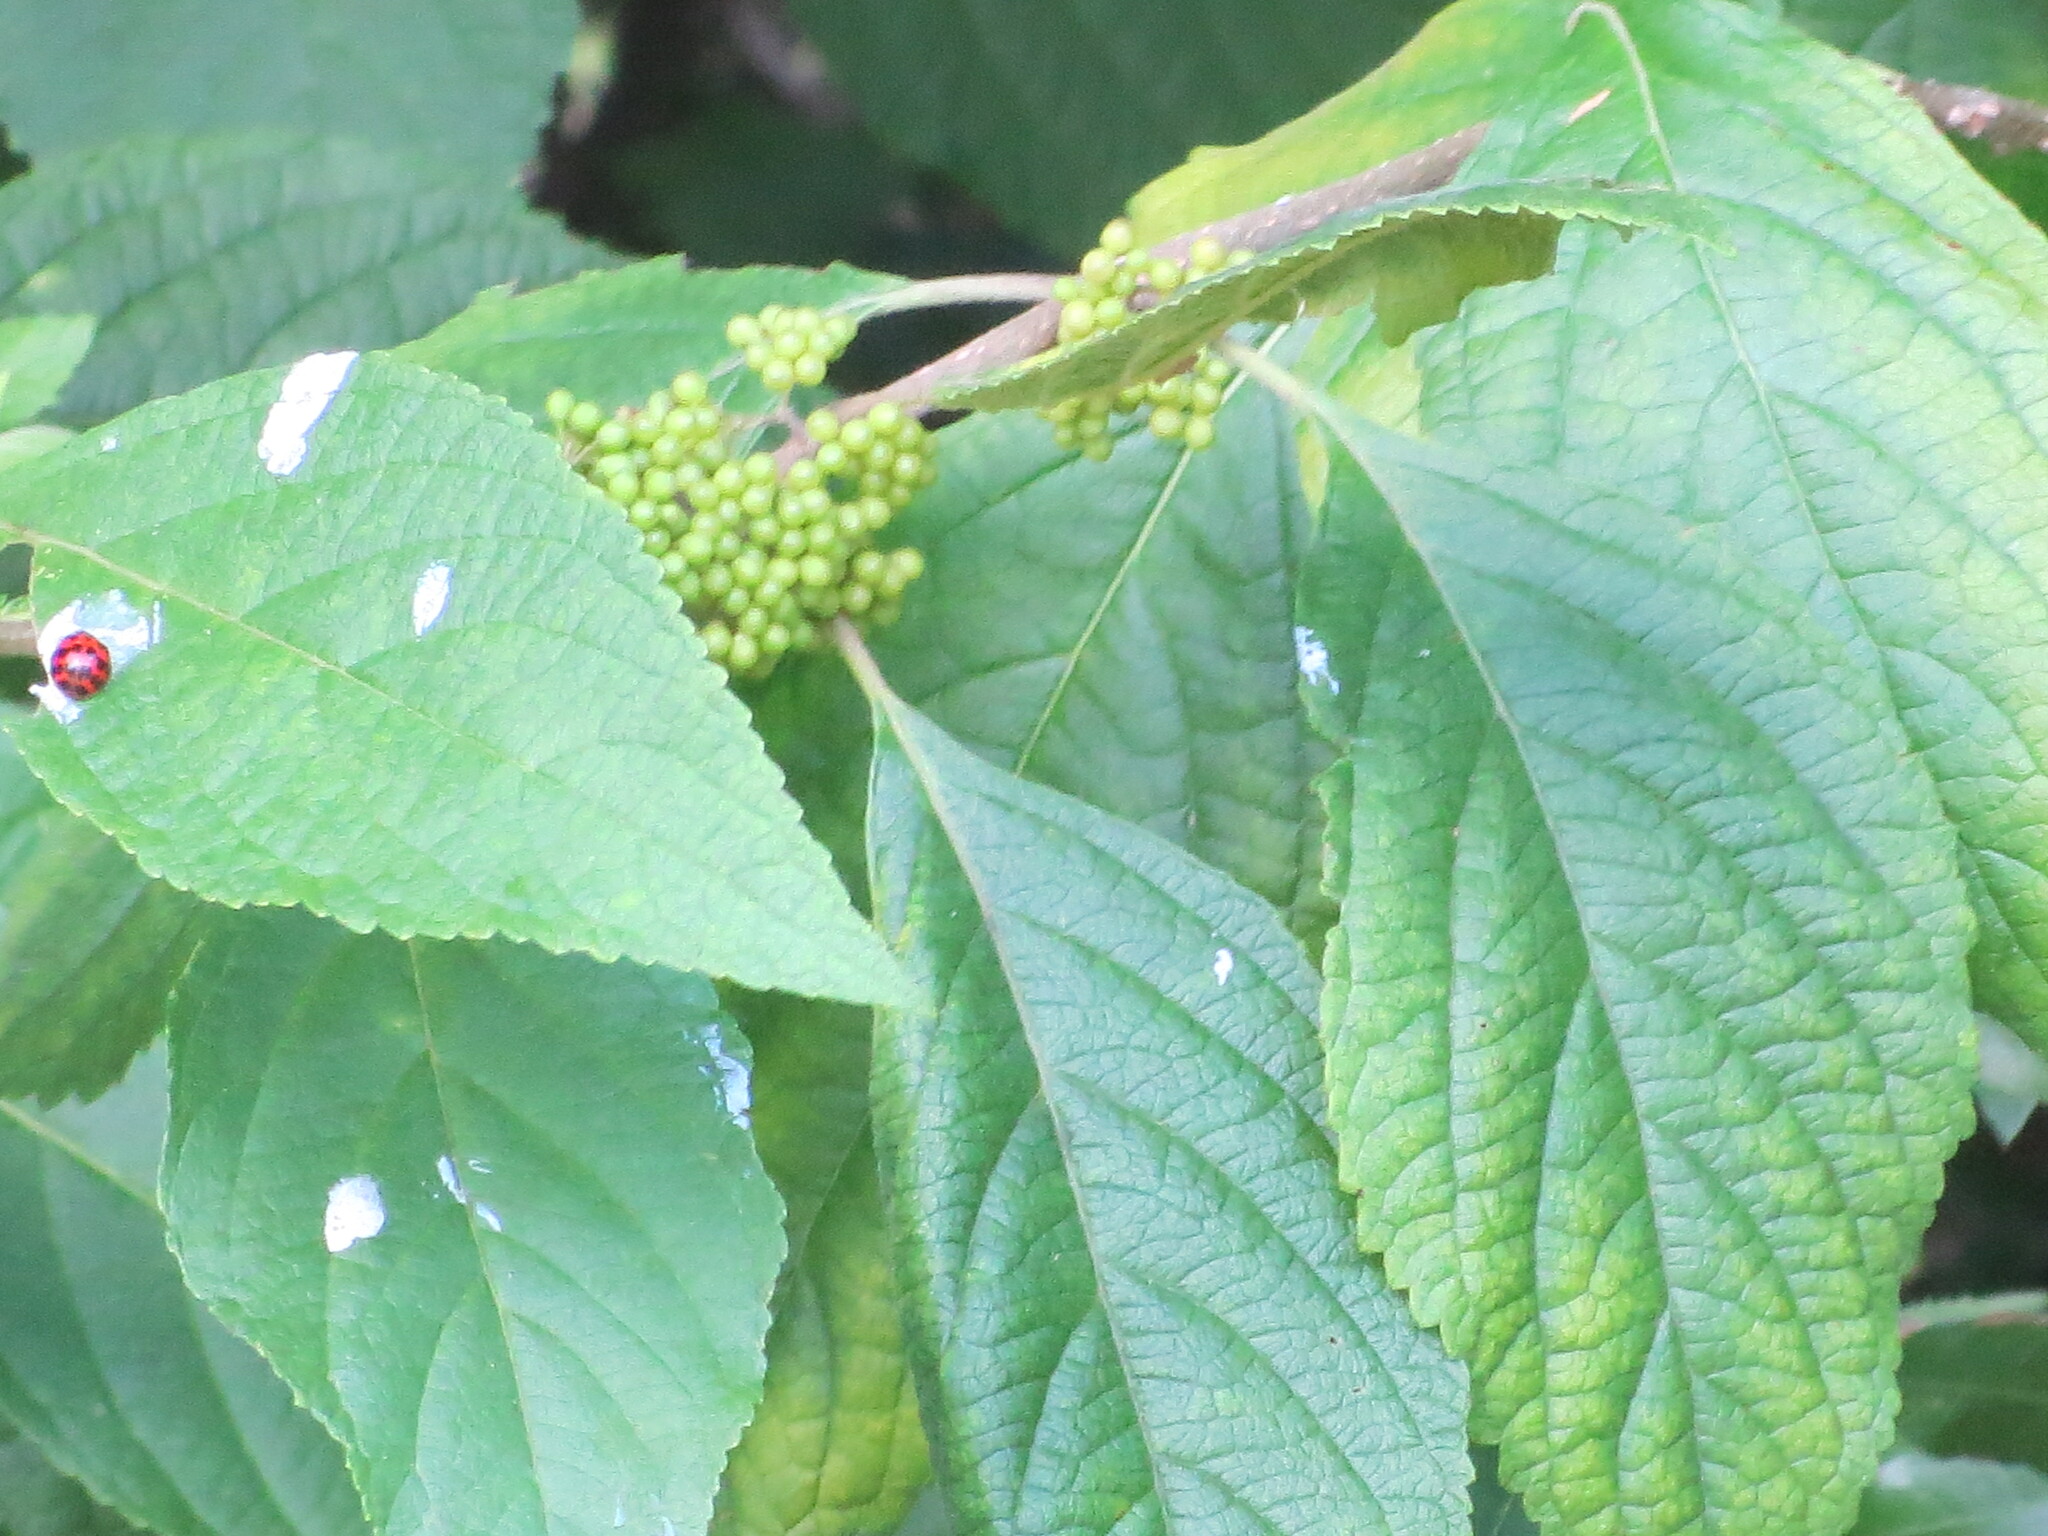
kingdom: Plantae
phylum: Tracheophyta
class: Magnoliopsida
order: Lamiales
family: Lamiaceae
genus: Callicarpa
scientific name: Callicarpa americana
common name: American beautyberry
